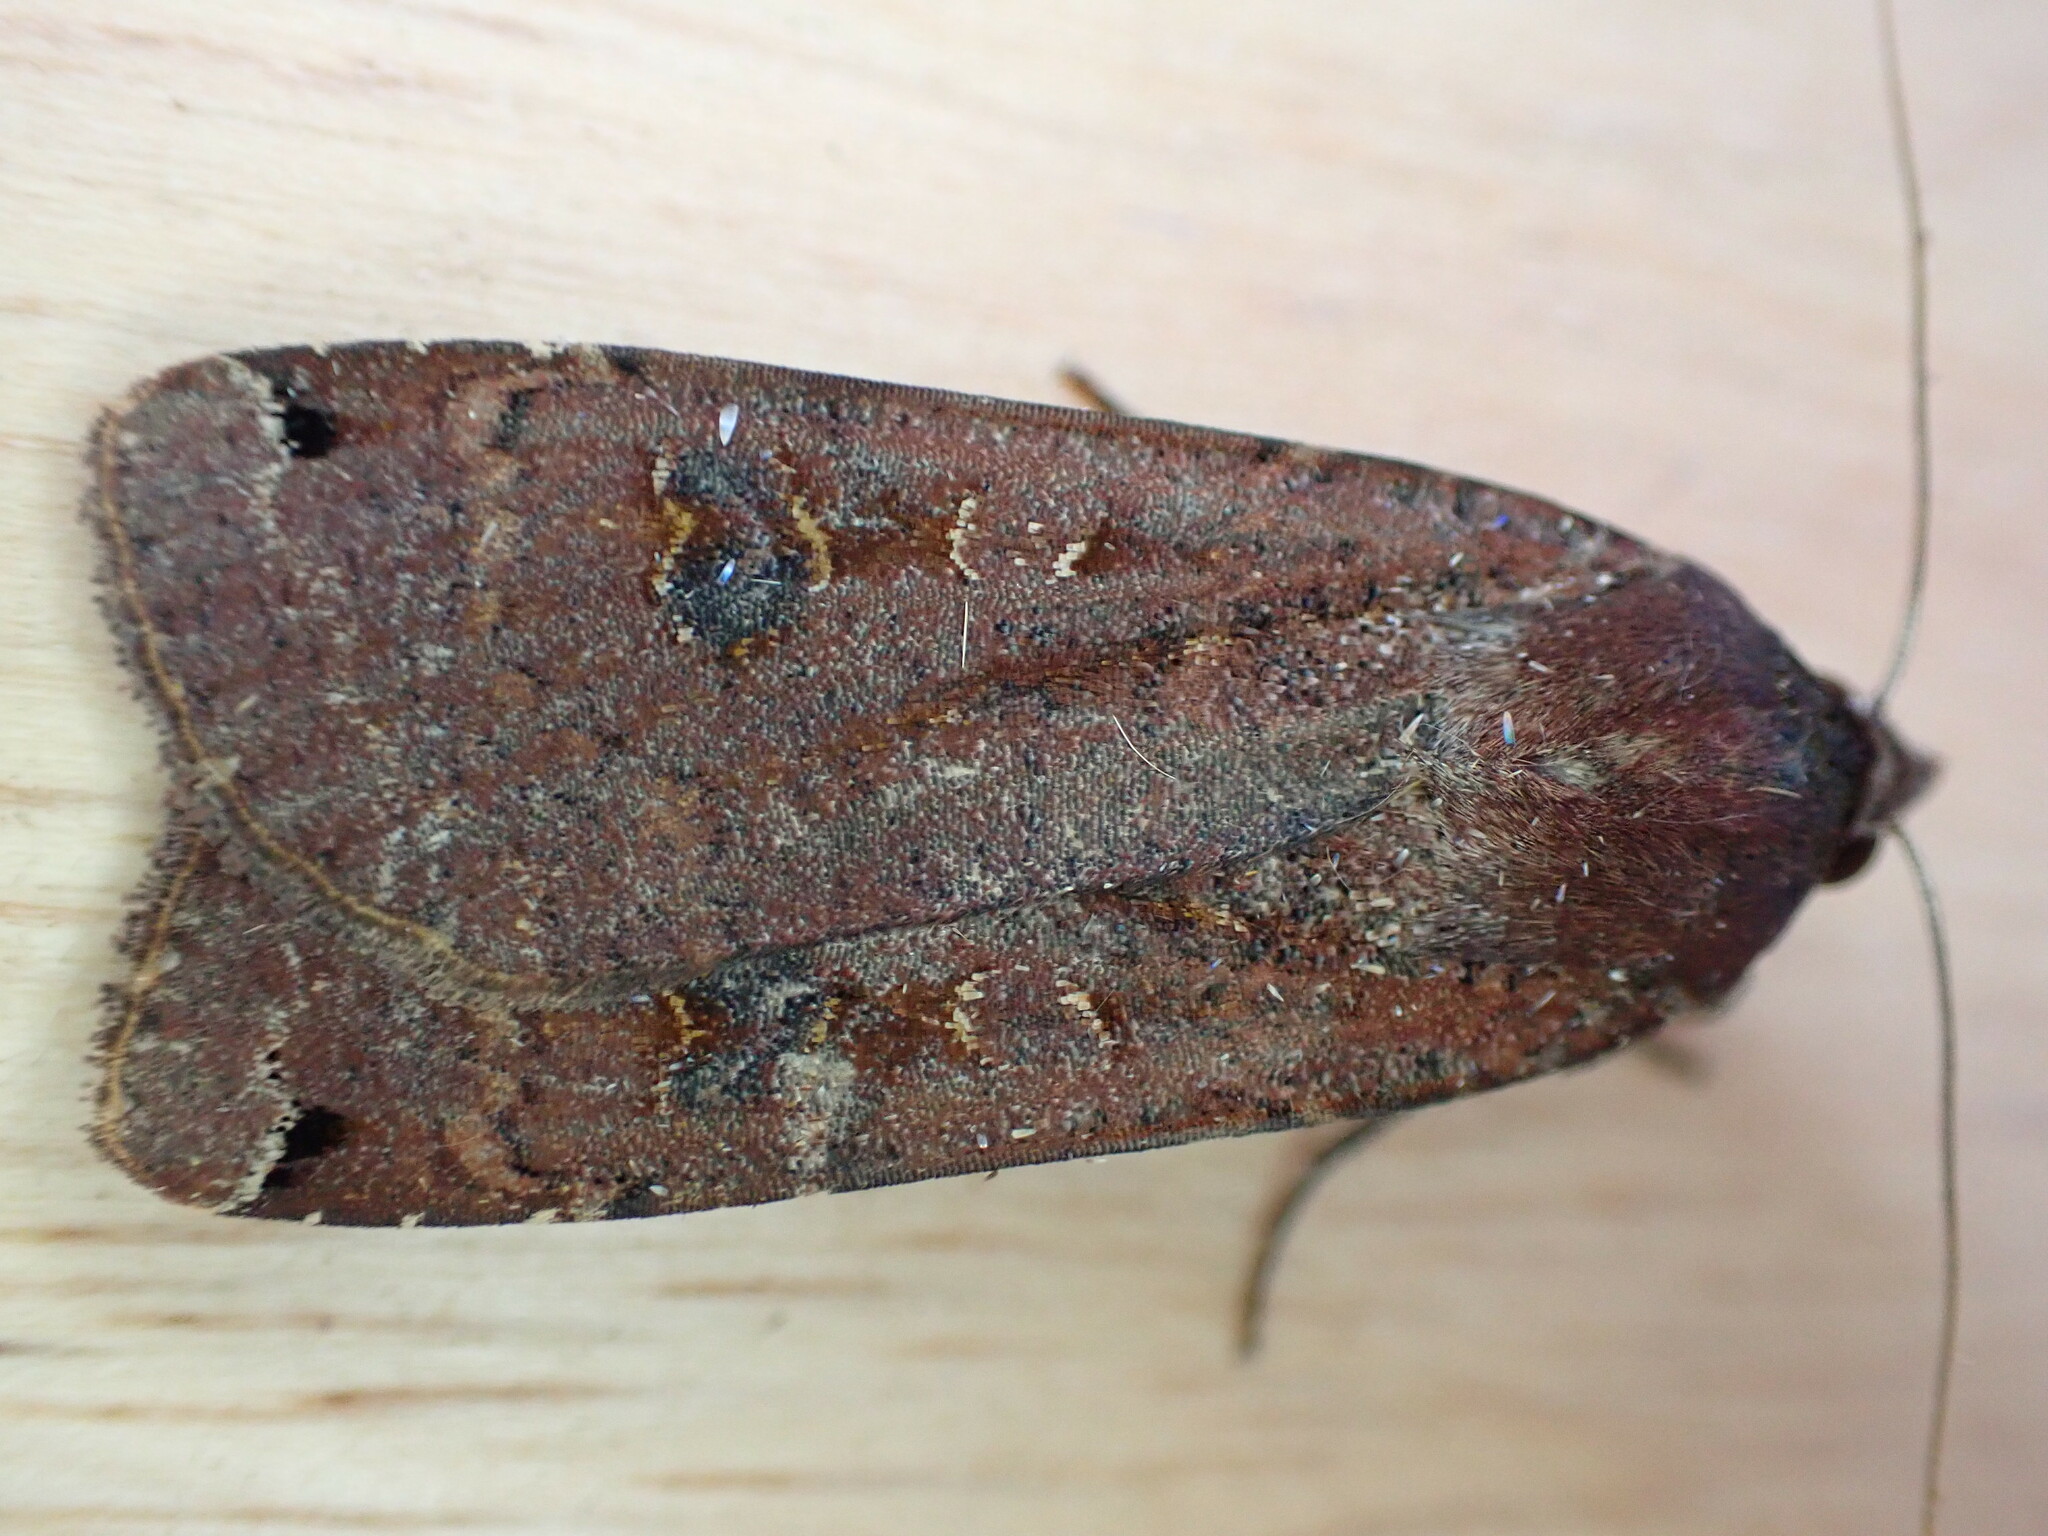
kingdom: Animalia
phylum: Arthropoda
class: Insecta
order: Lepidoptera
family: Noctuidae
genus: Noctua
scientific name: Noctua pronuba
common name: Large yellow underwing
